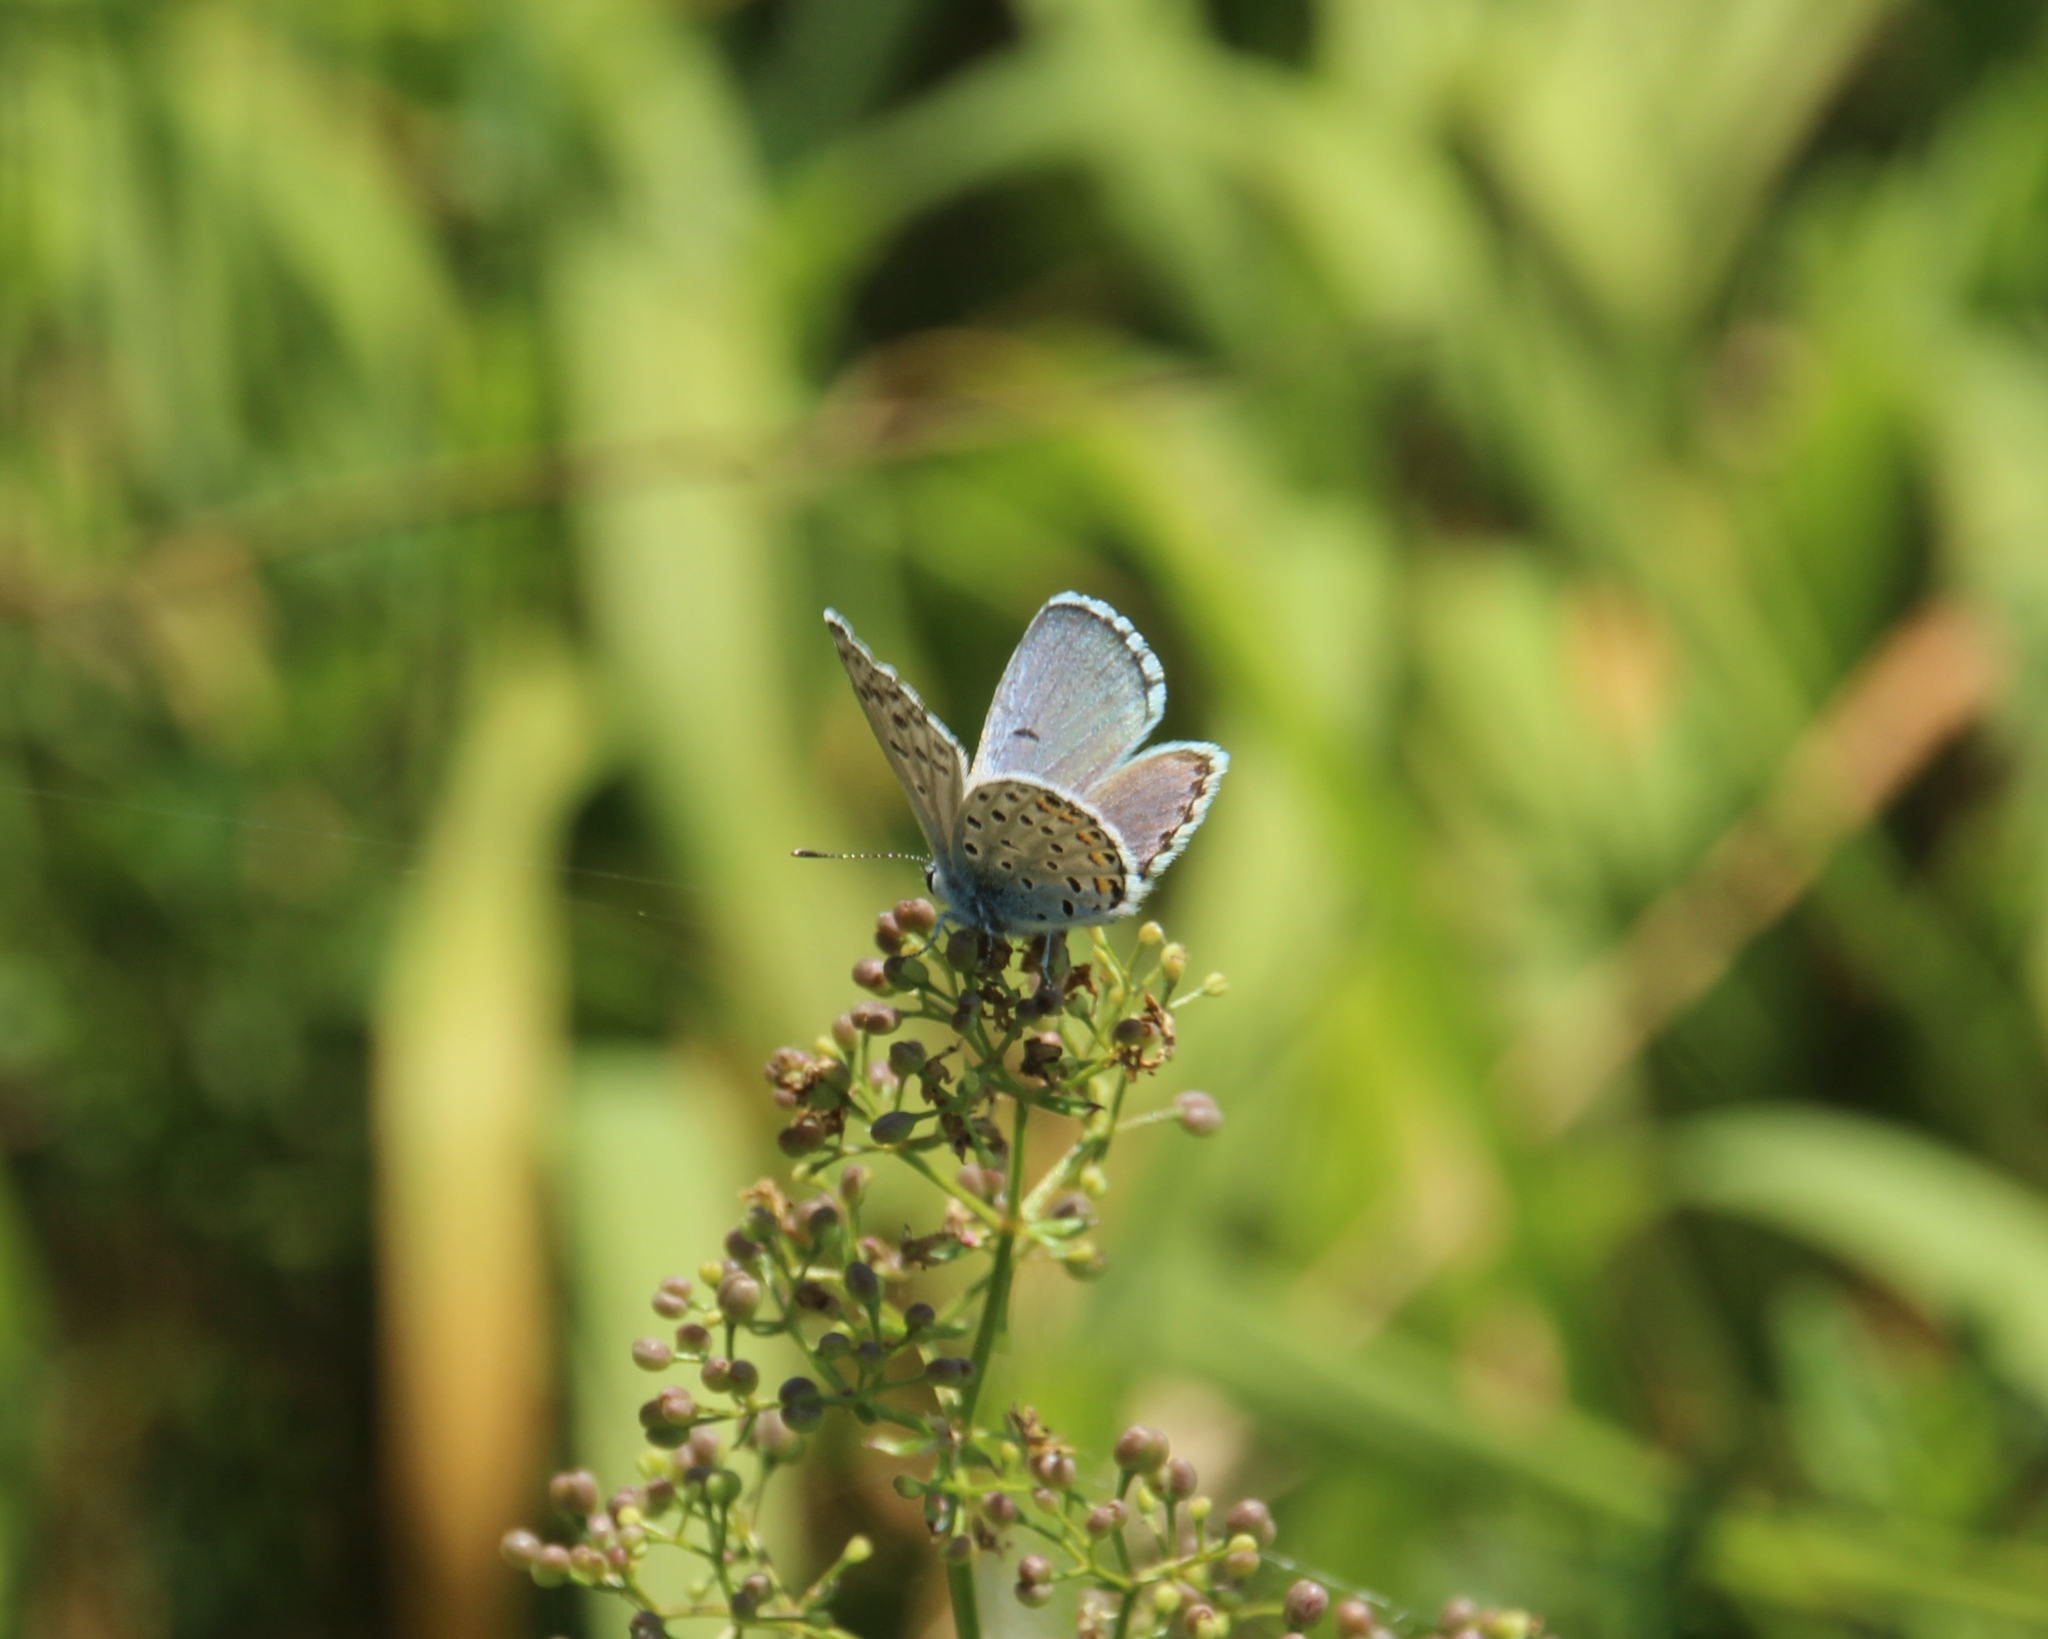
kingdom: Animalia
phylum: Arthropoda
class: Insecta
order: Lepidoptera
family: Lycaenidae
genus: Pseudophilotes
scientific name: Pseudophilotes baton
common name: Baton blue
